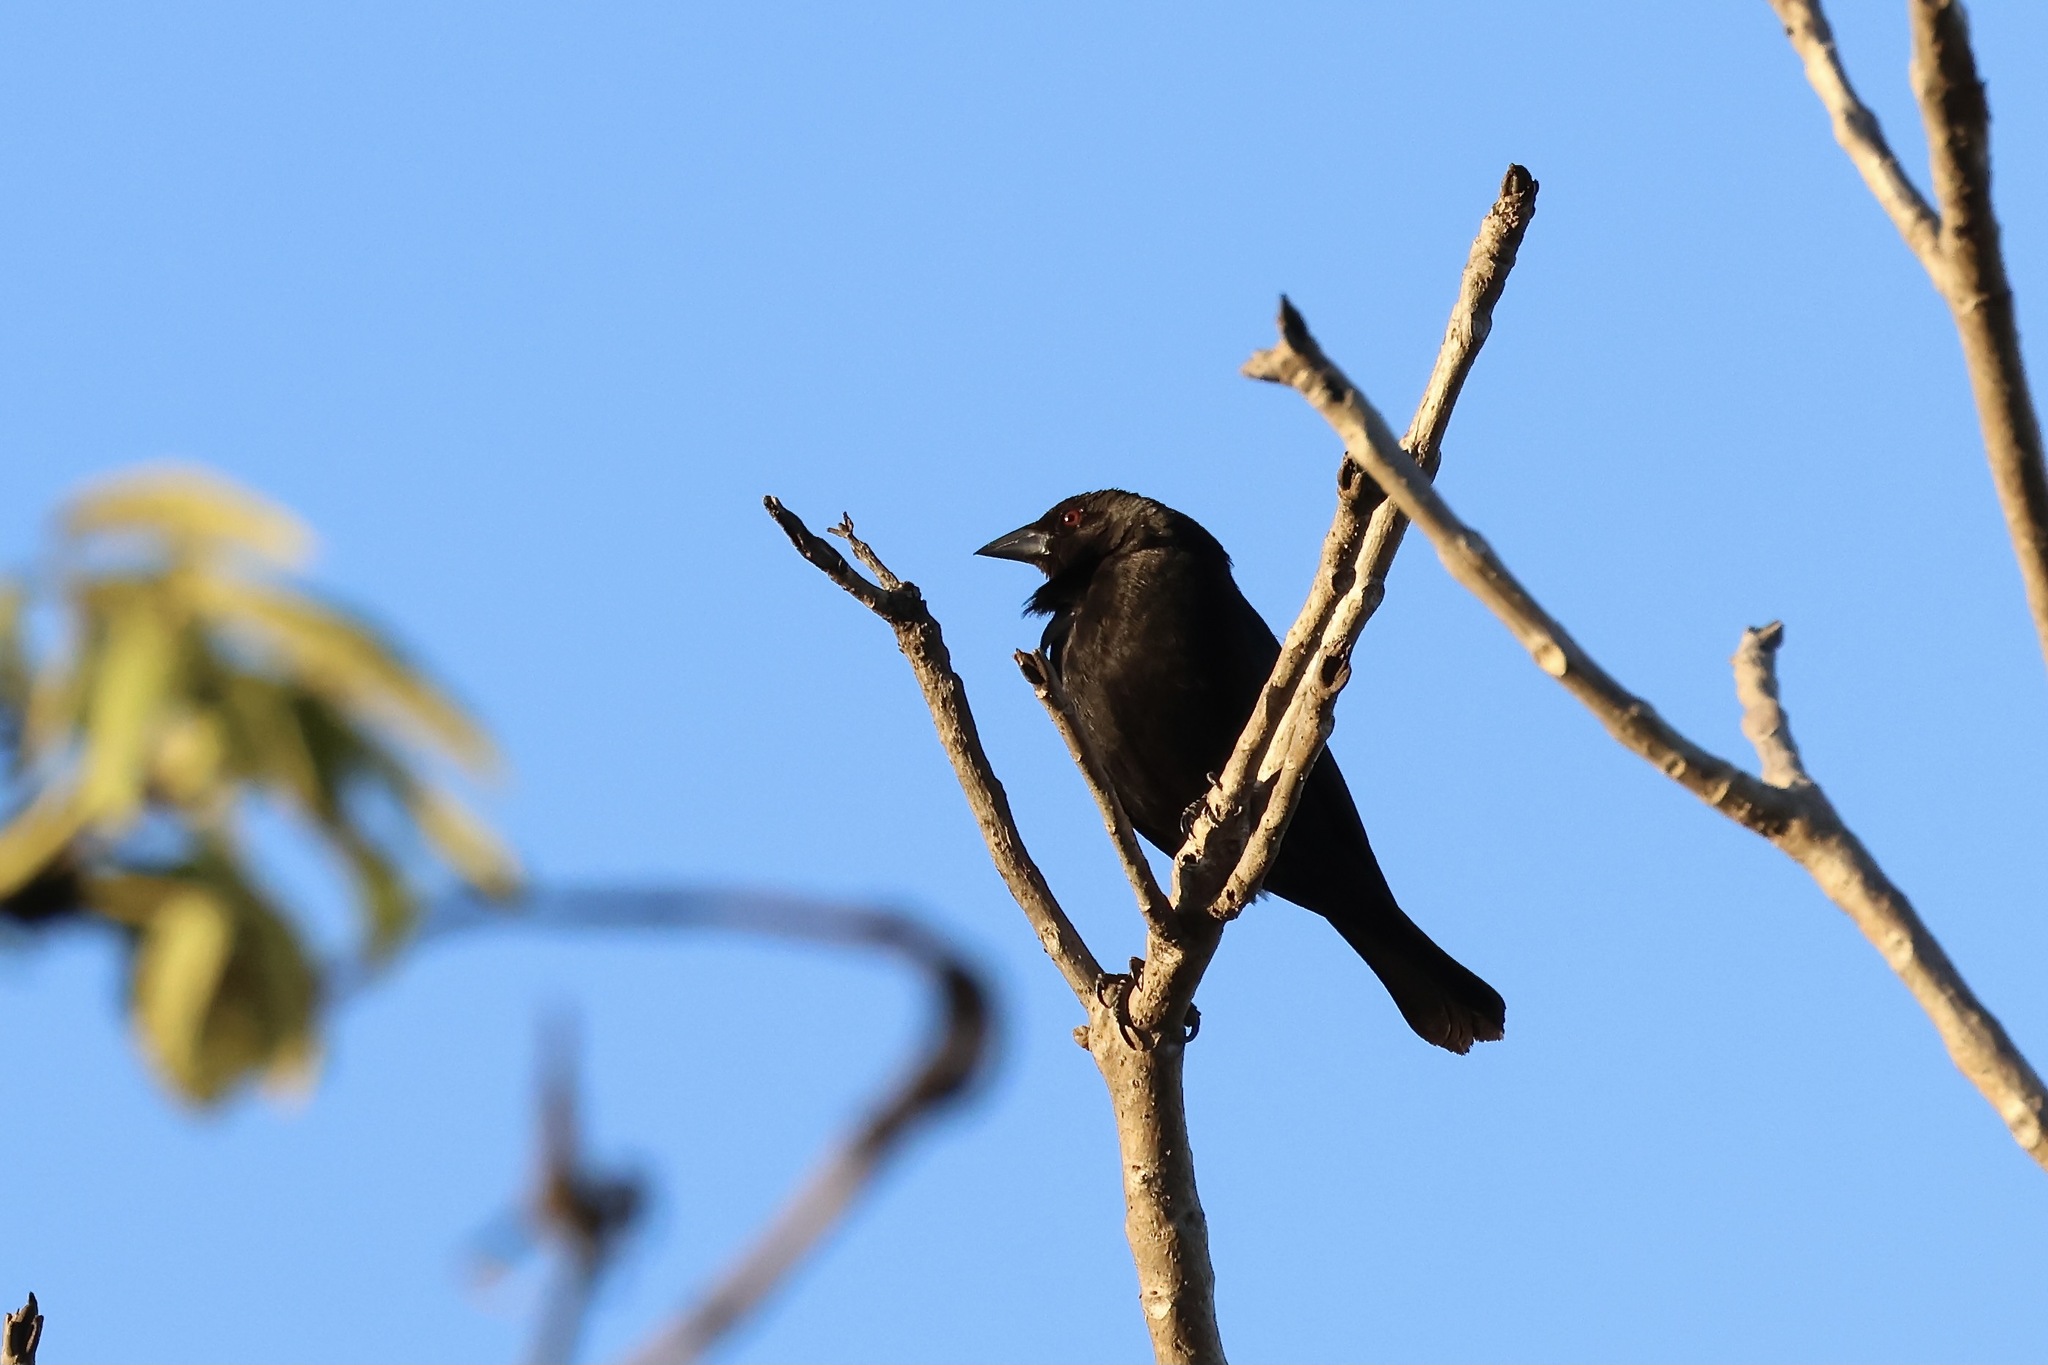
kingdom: Animalia
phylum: Chordata
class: Aves
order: Passeriformes
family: Icteridae
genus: Molothrus
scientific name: Molothrus aeneus
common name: Bronzed cowbird
